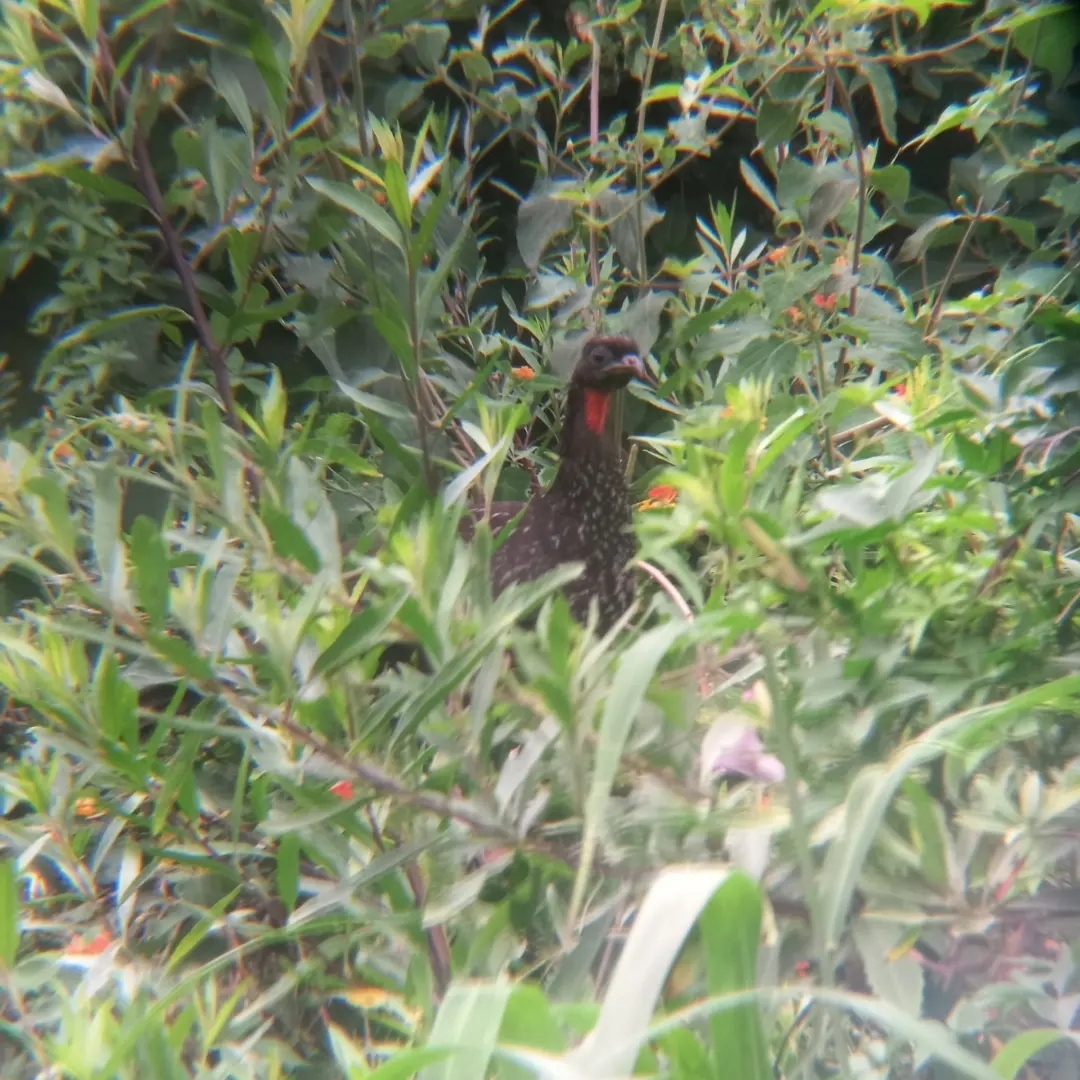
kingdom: Animalia
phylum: Chordata
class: Aves
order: Galliformes
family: Cracidae
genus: Penelope
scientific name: Penelope obscura
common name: Dusky-legged guan
